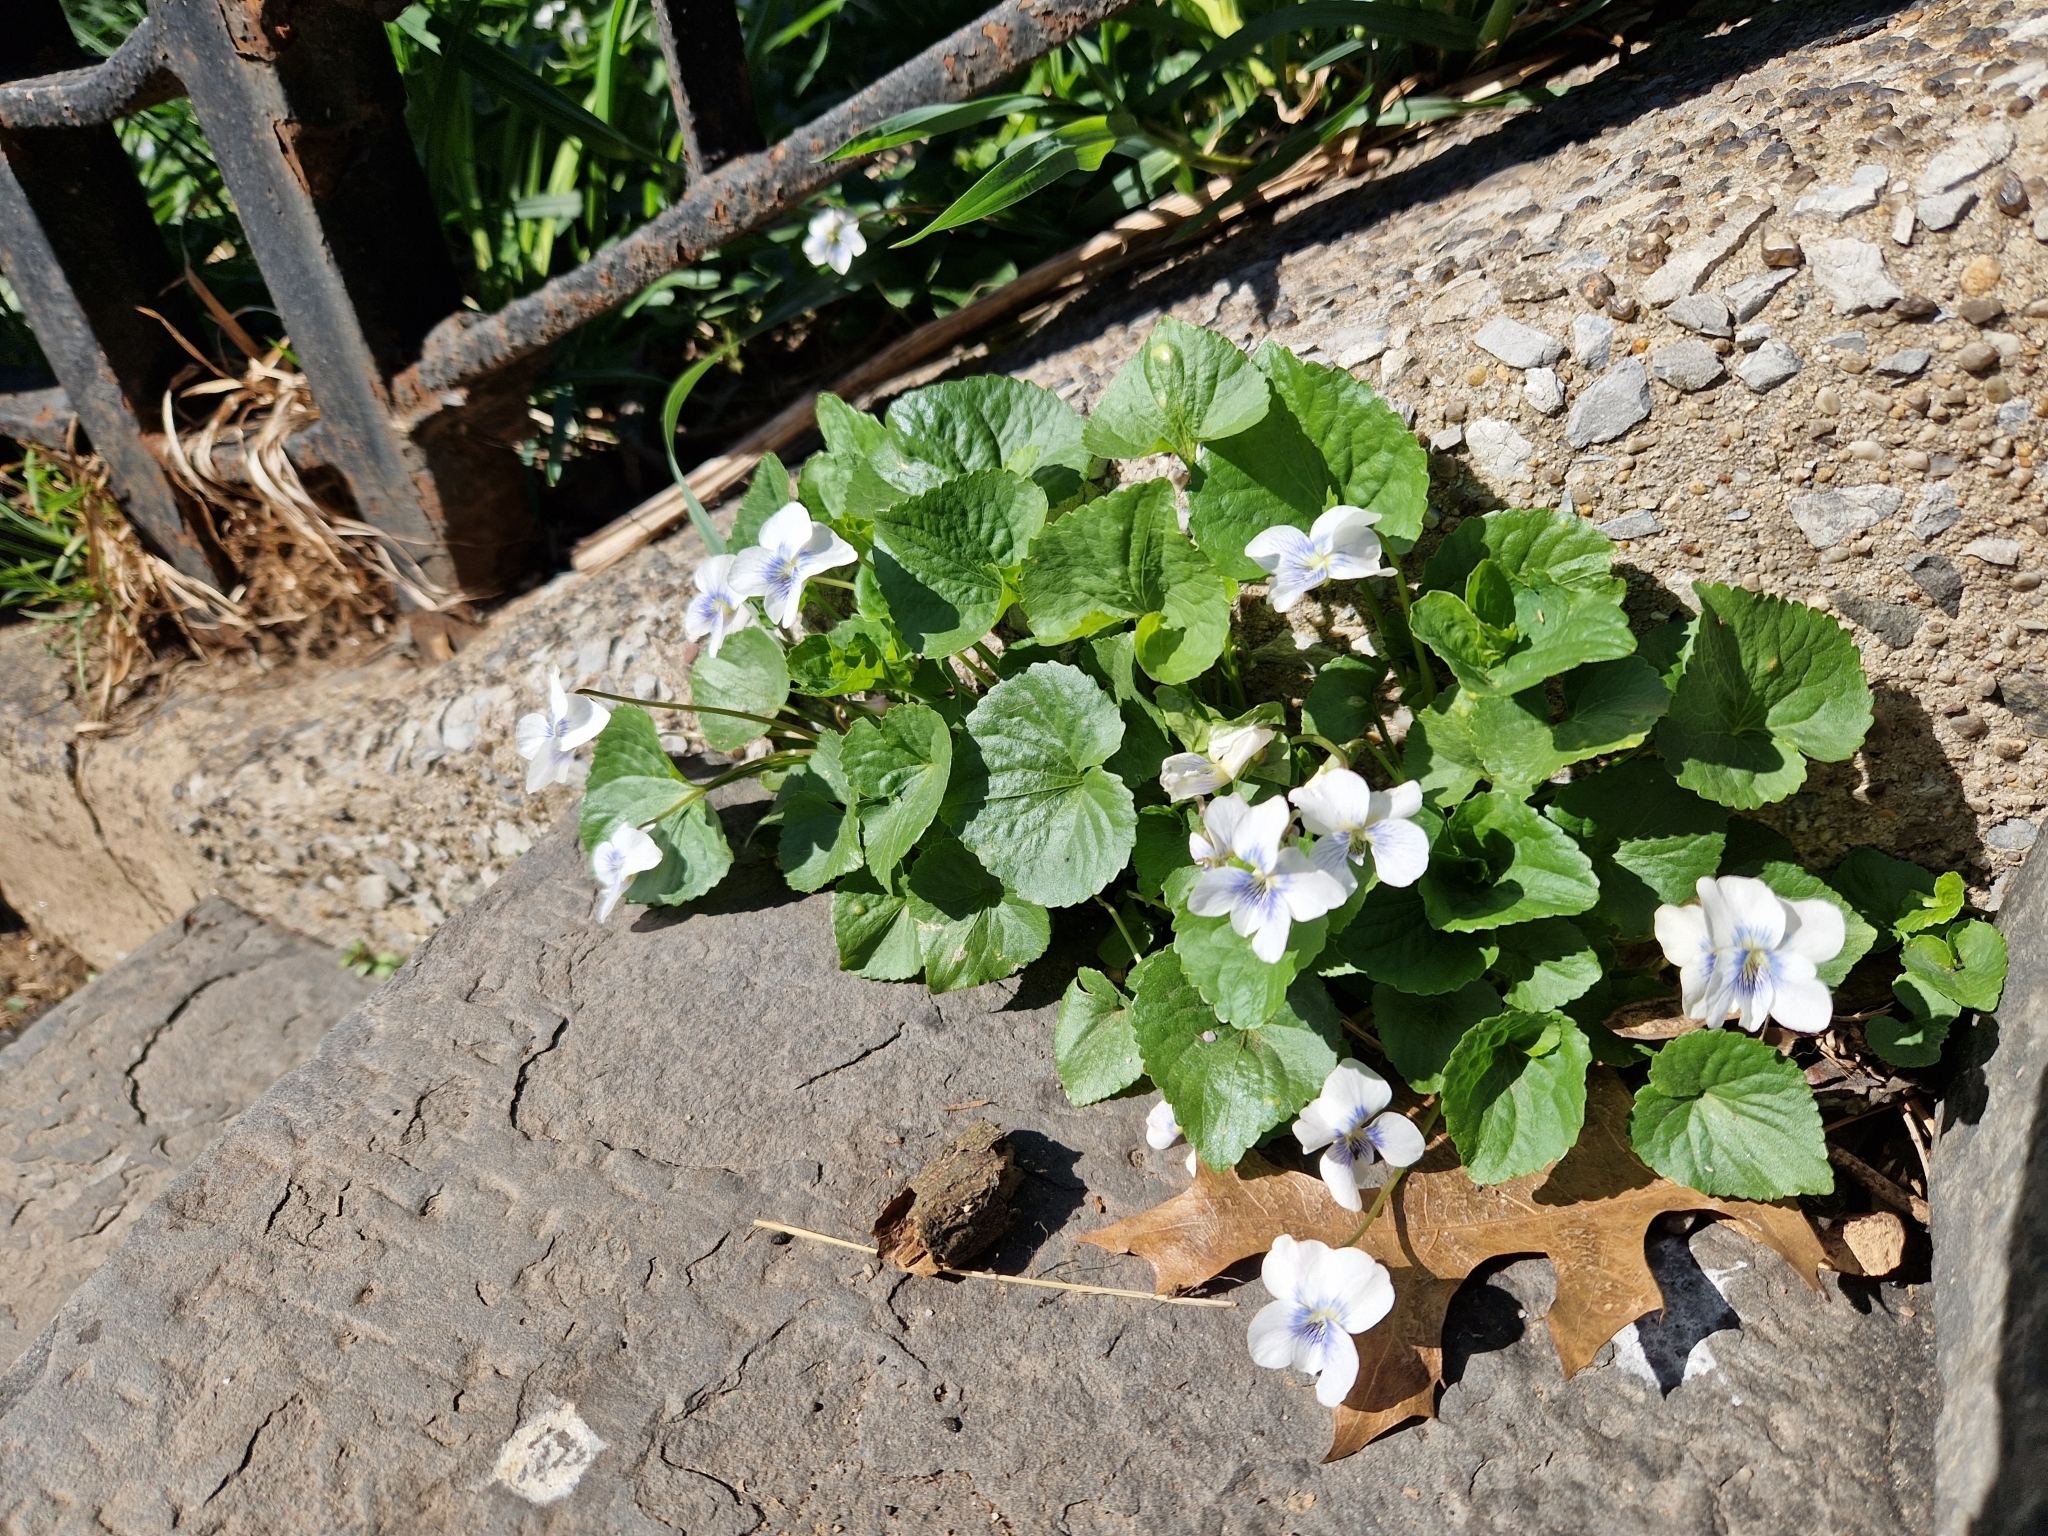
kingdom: Plantae
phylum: Tracheophyta
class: Magnoliopsida
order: Malpighiales
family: Violaceae
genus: Viola
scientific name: Viola sororia
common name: Dooryard violet
